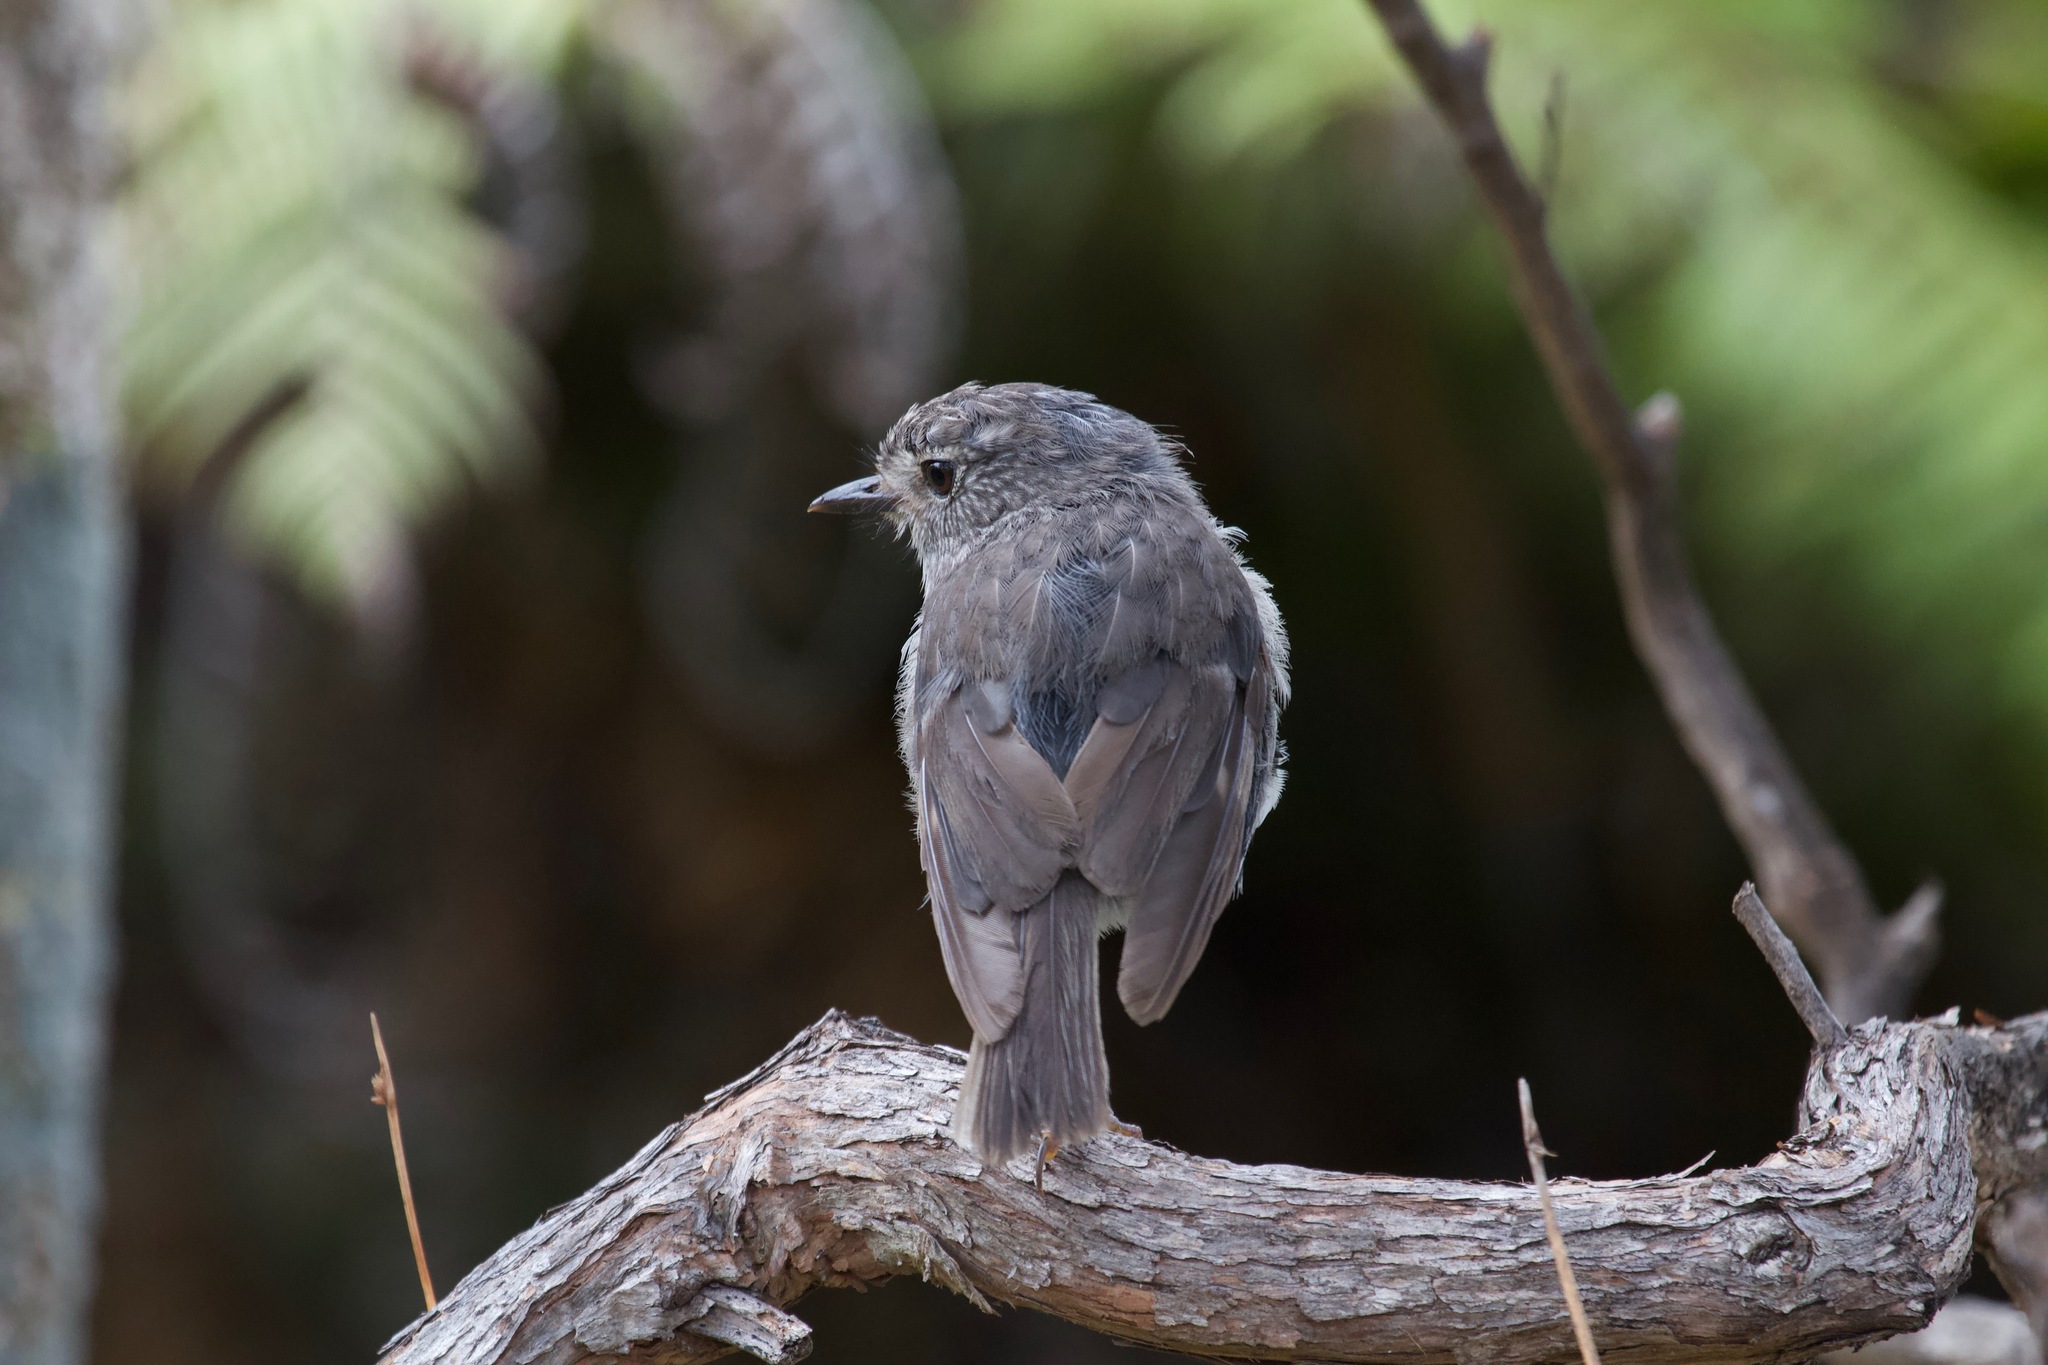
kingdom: Animalia
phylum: Chordata
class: Aves
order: Passeriformes
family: Petroicidae
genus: Petroica
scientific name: Petroica australis
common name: New zealand robin
